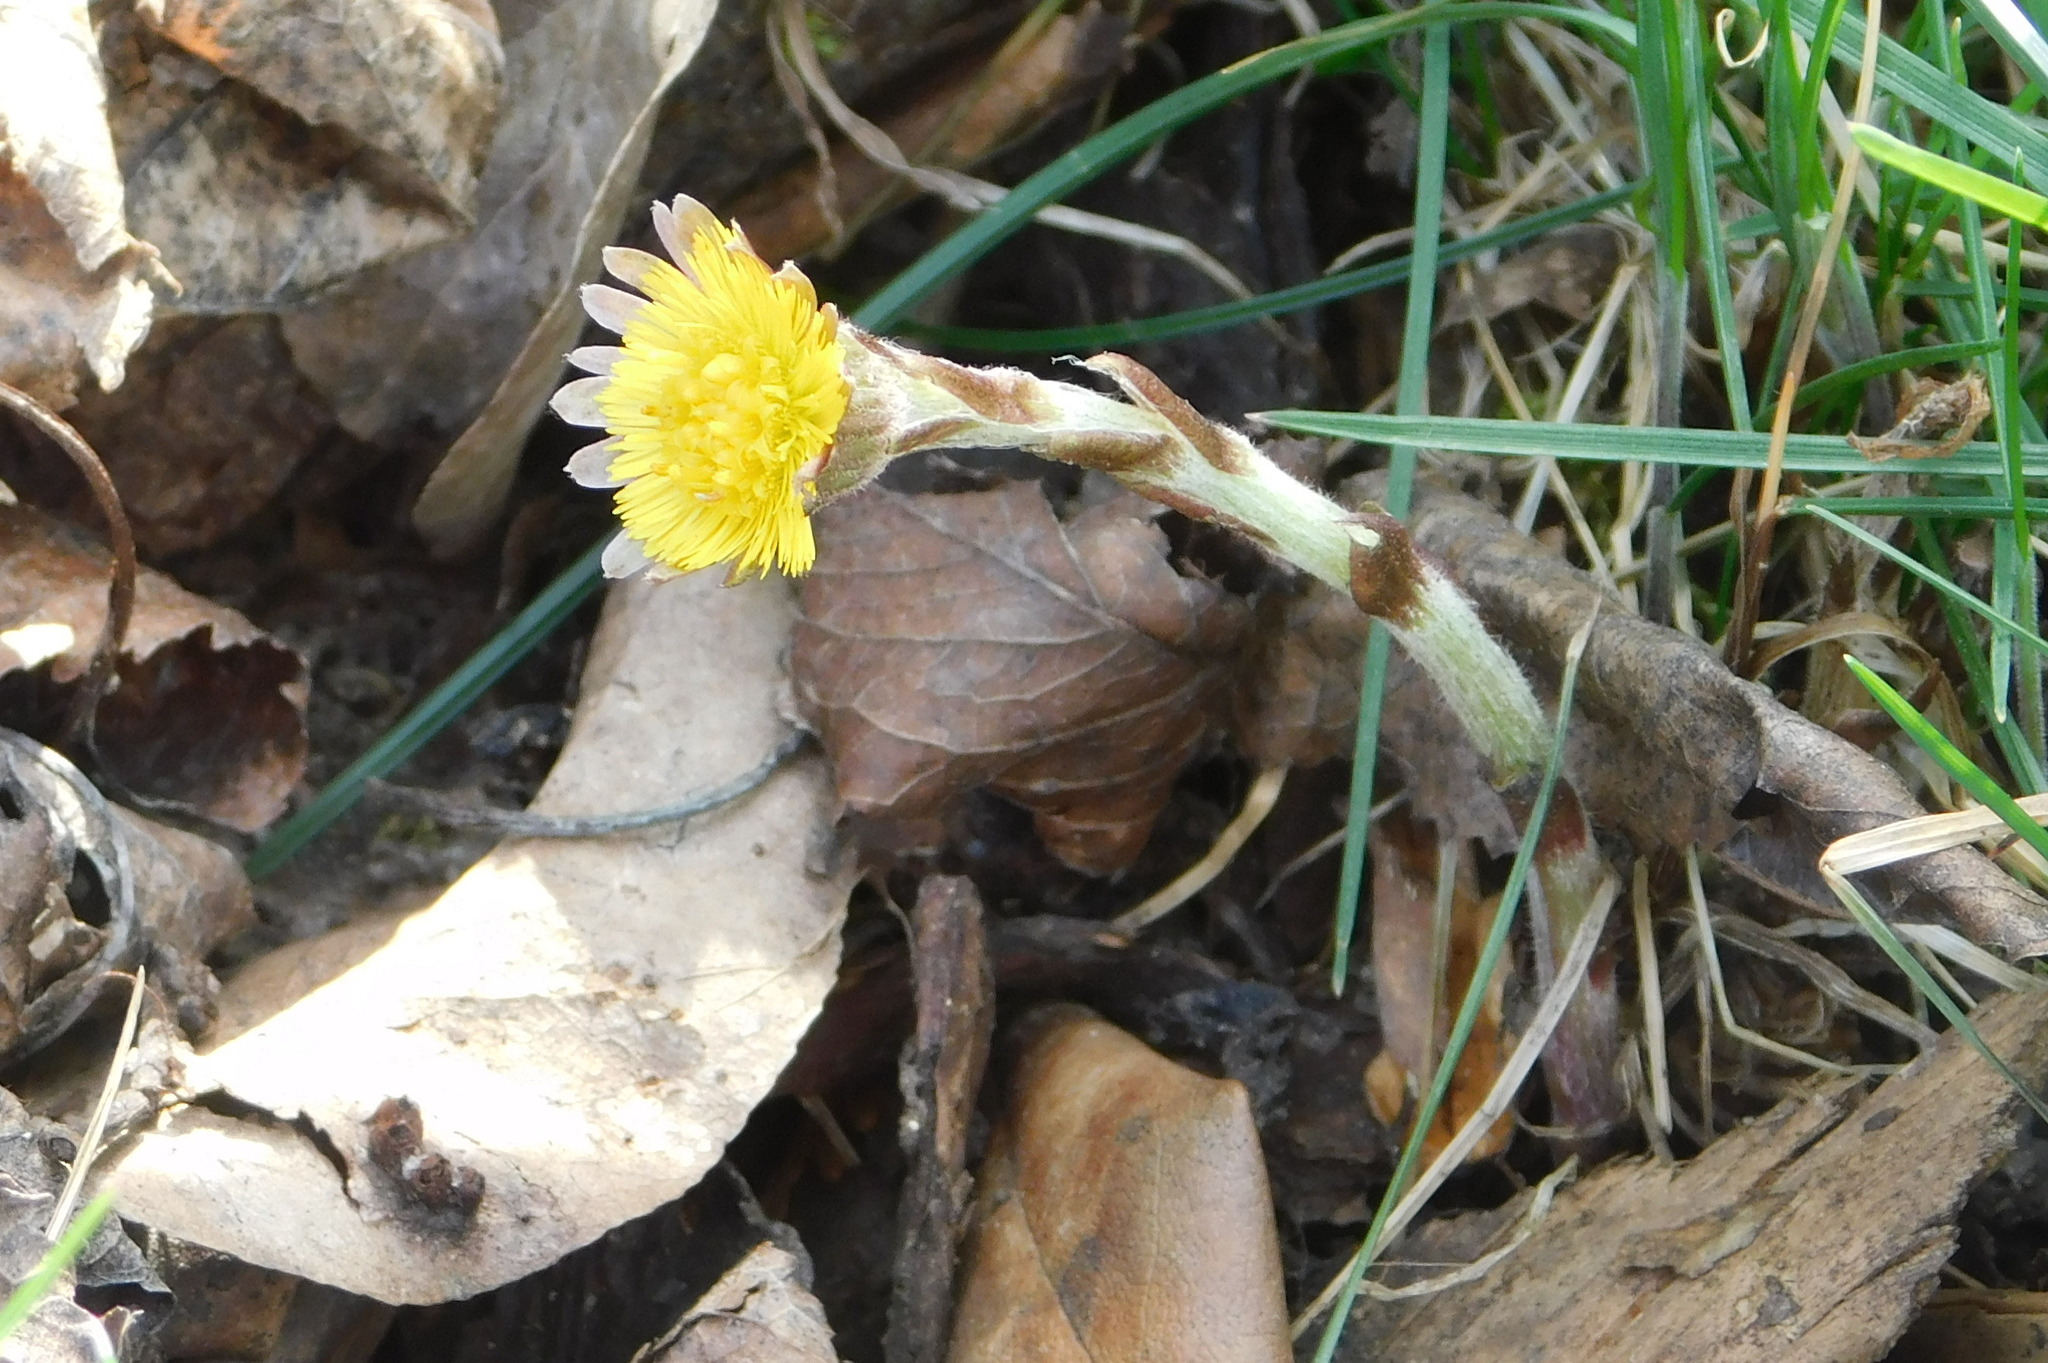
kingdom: Plantae
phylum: Tracheophyta
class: Magnoliopsida
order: Asterales
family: Asteraceae
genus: Tussilago
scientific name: Tussilago farfara
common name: Coltsfoot
